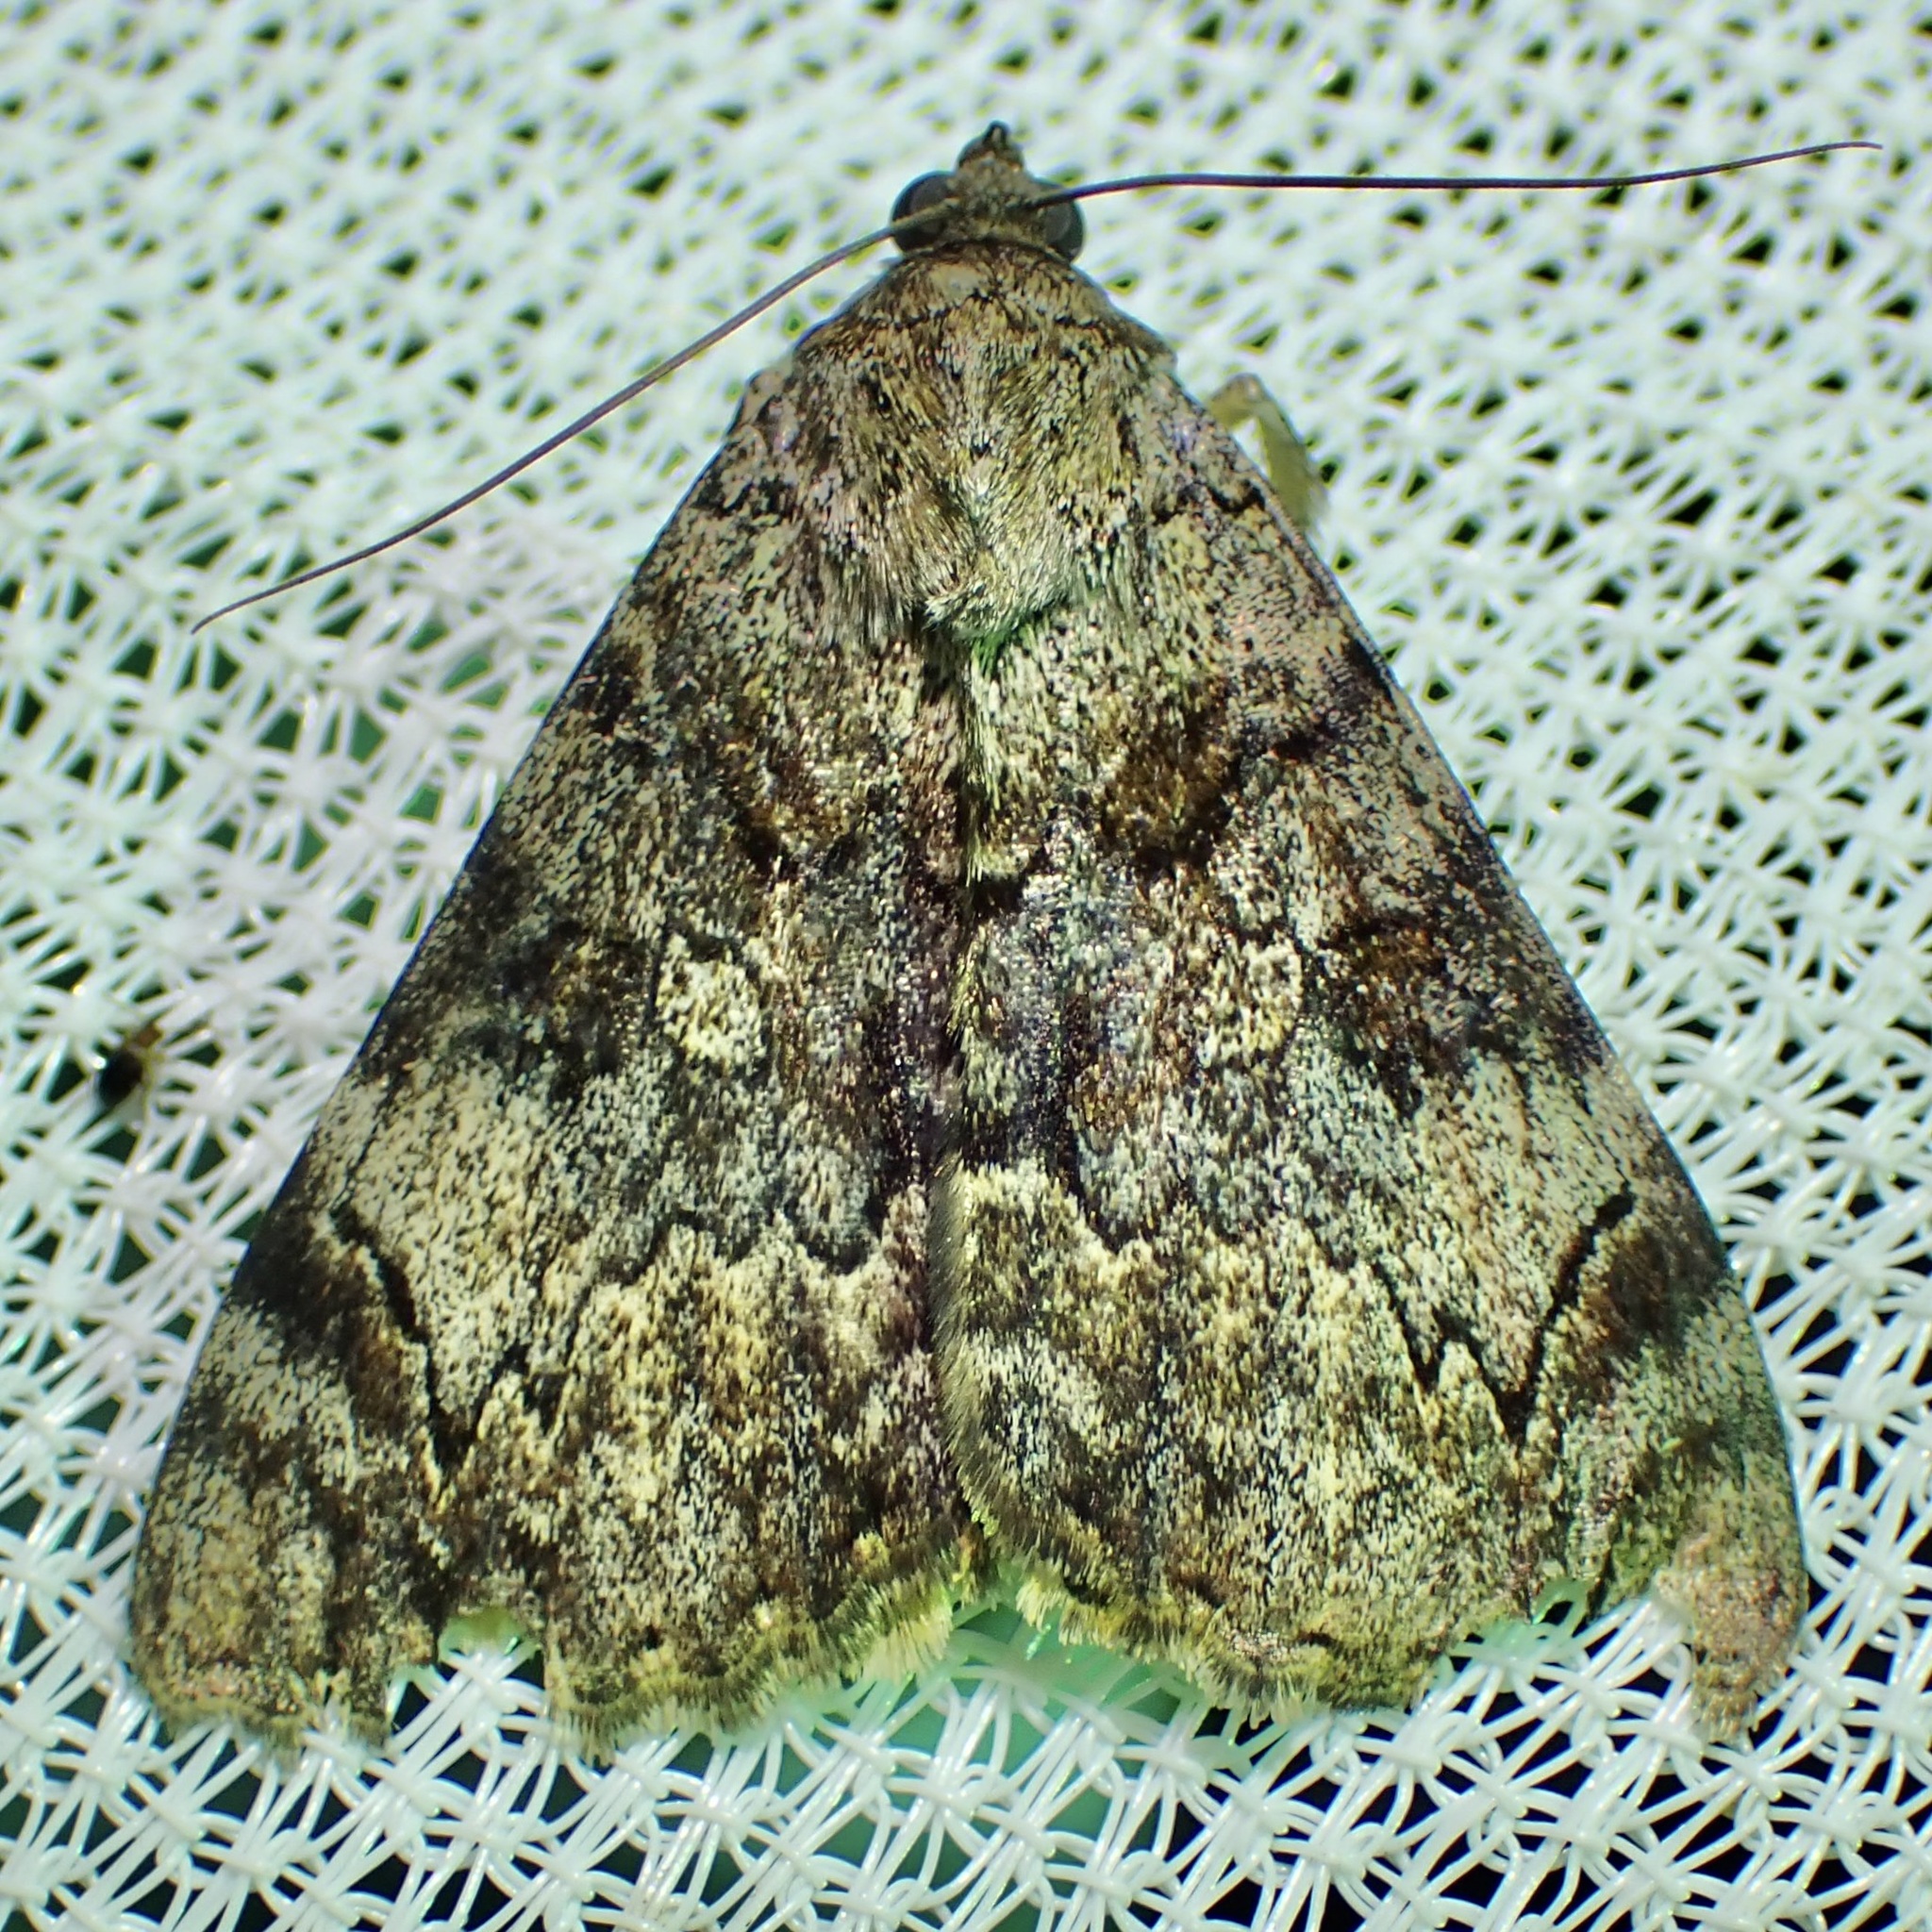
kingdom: Animalia
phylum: Arthropoda
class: Insecta
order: Lepidoptera
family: Erebidae
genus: Catocala
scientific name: Catocala desdemona
